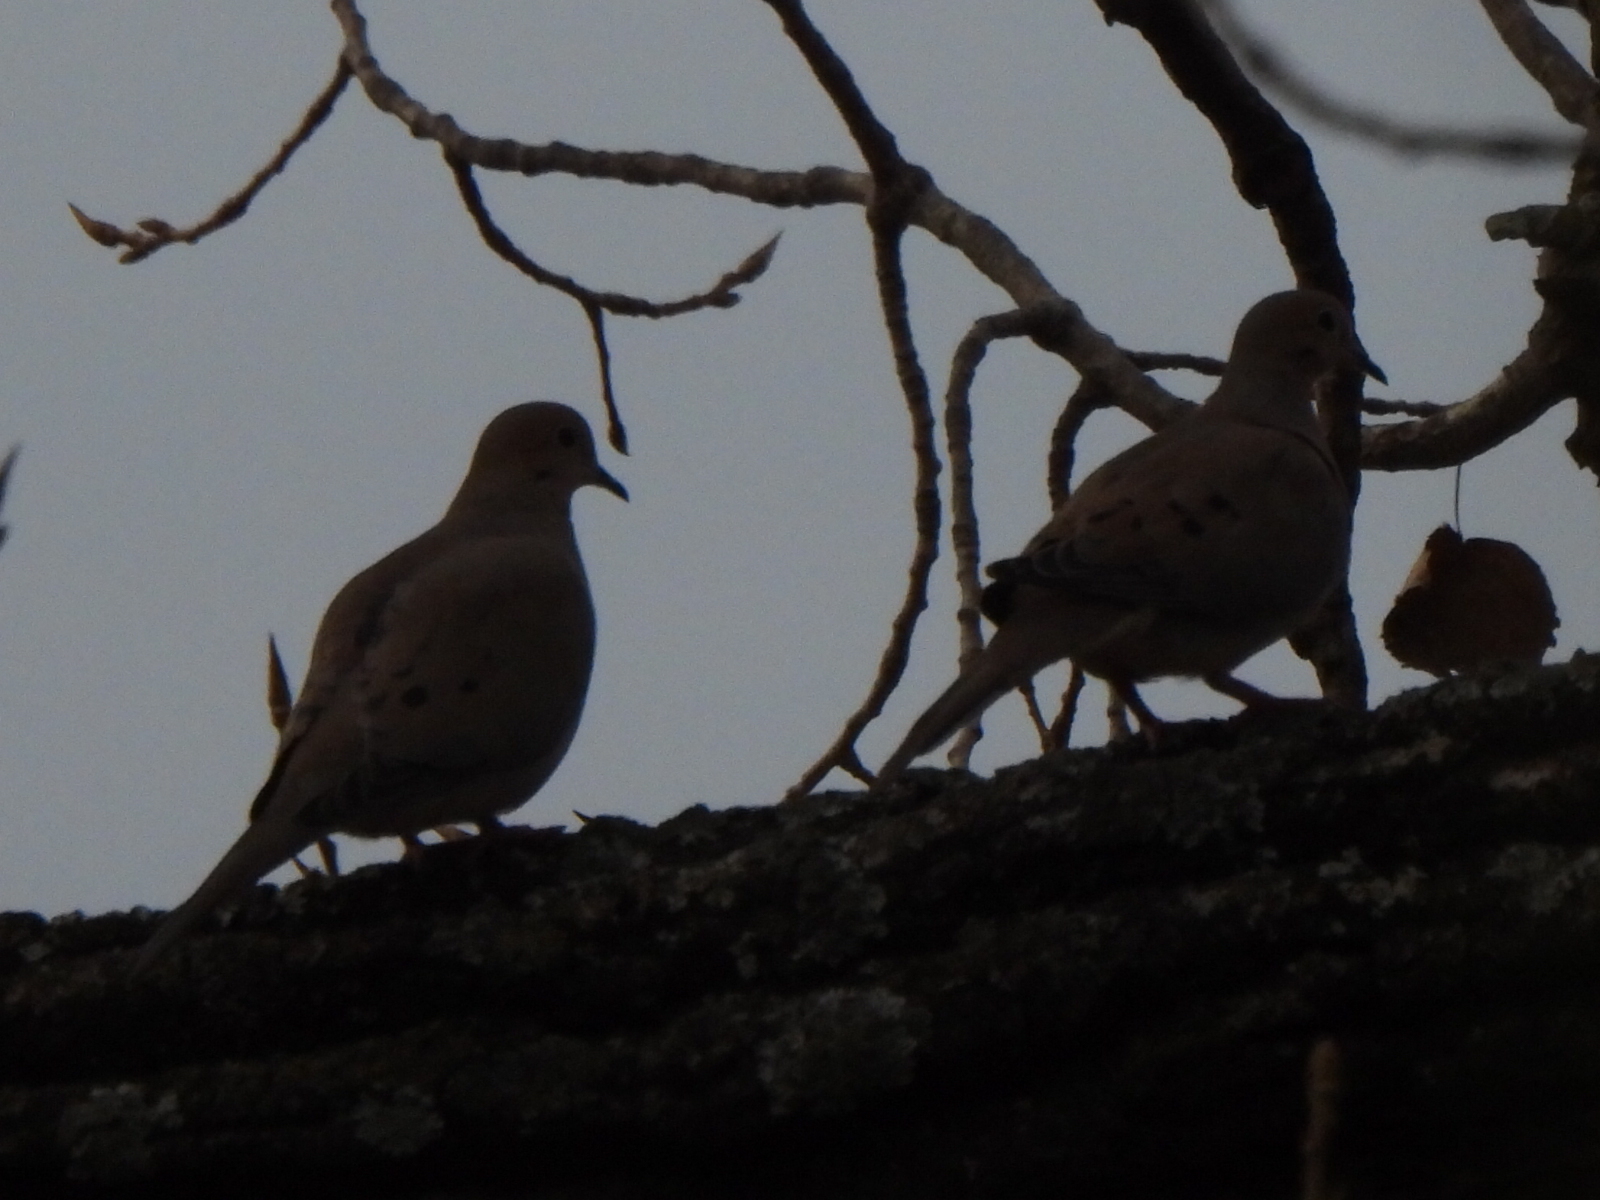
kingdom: Animalia
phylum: Chordata
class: Aves
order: Columbiformes
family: Columbidae
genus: Zenaida
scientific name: Zenaida macroura
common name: Mourning dove
